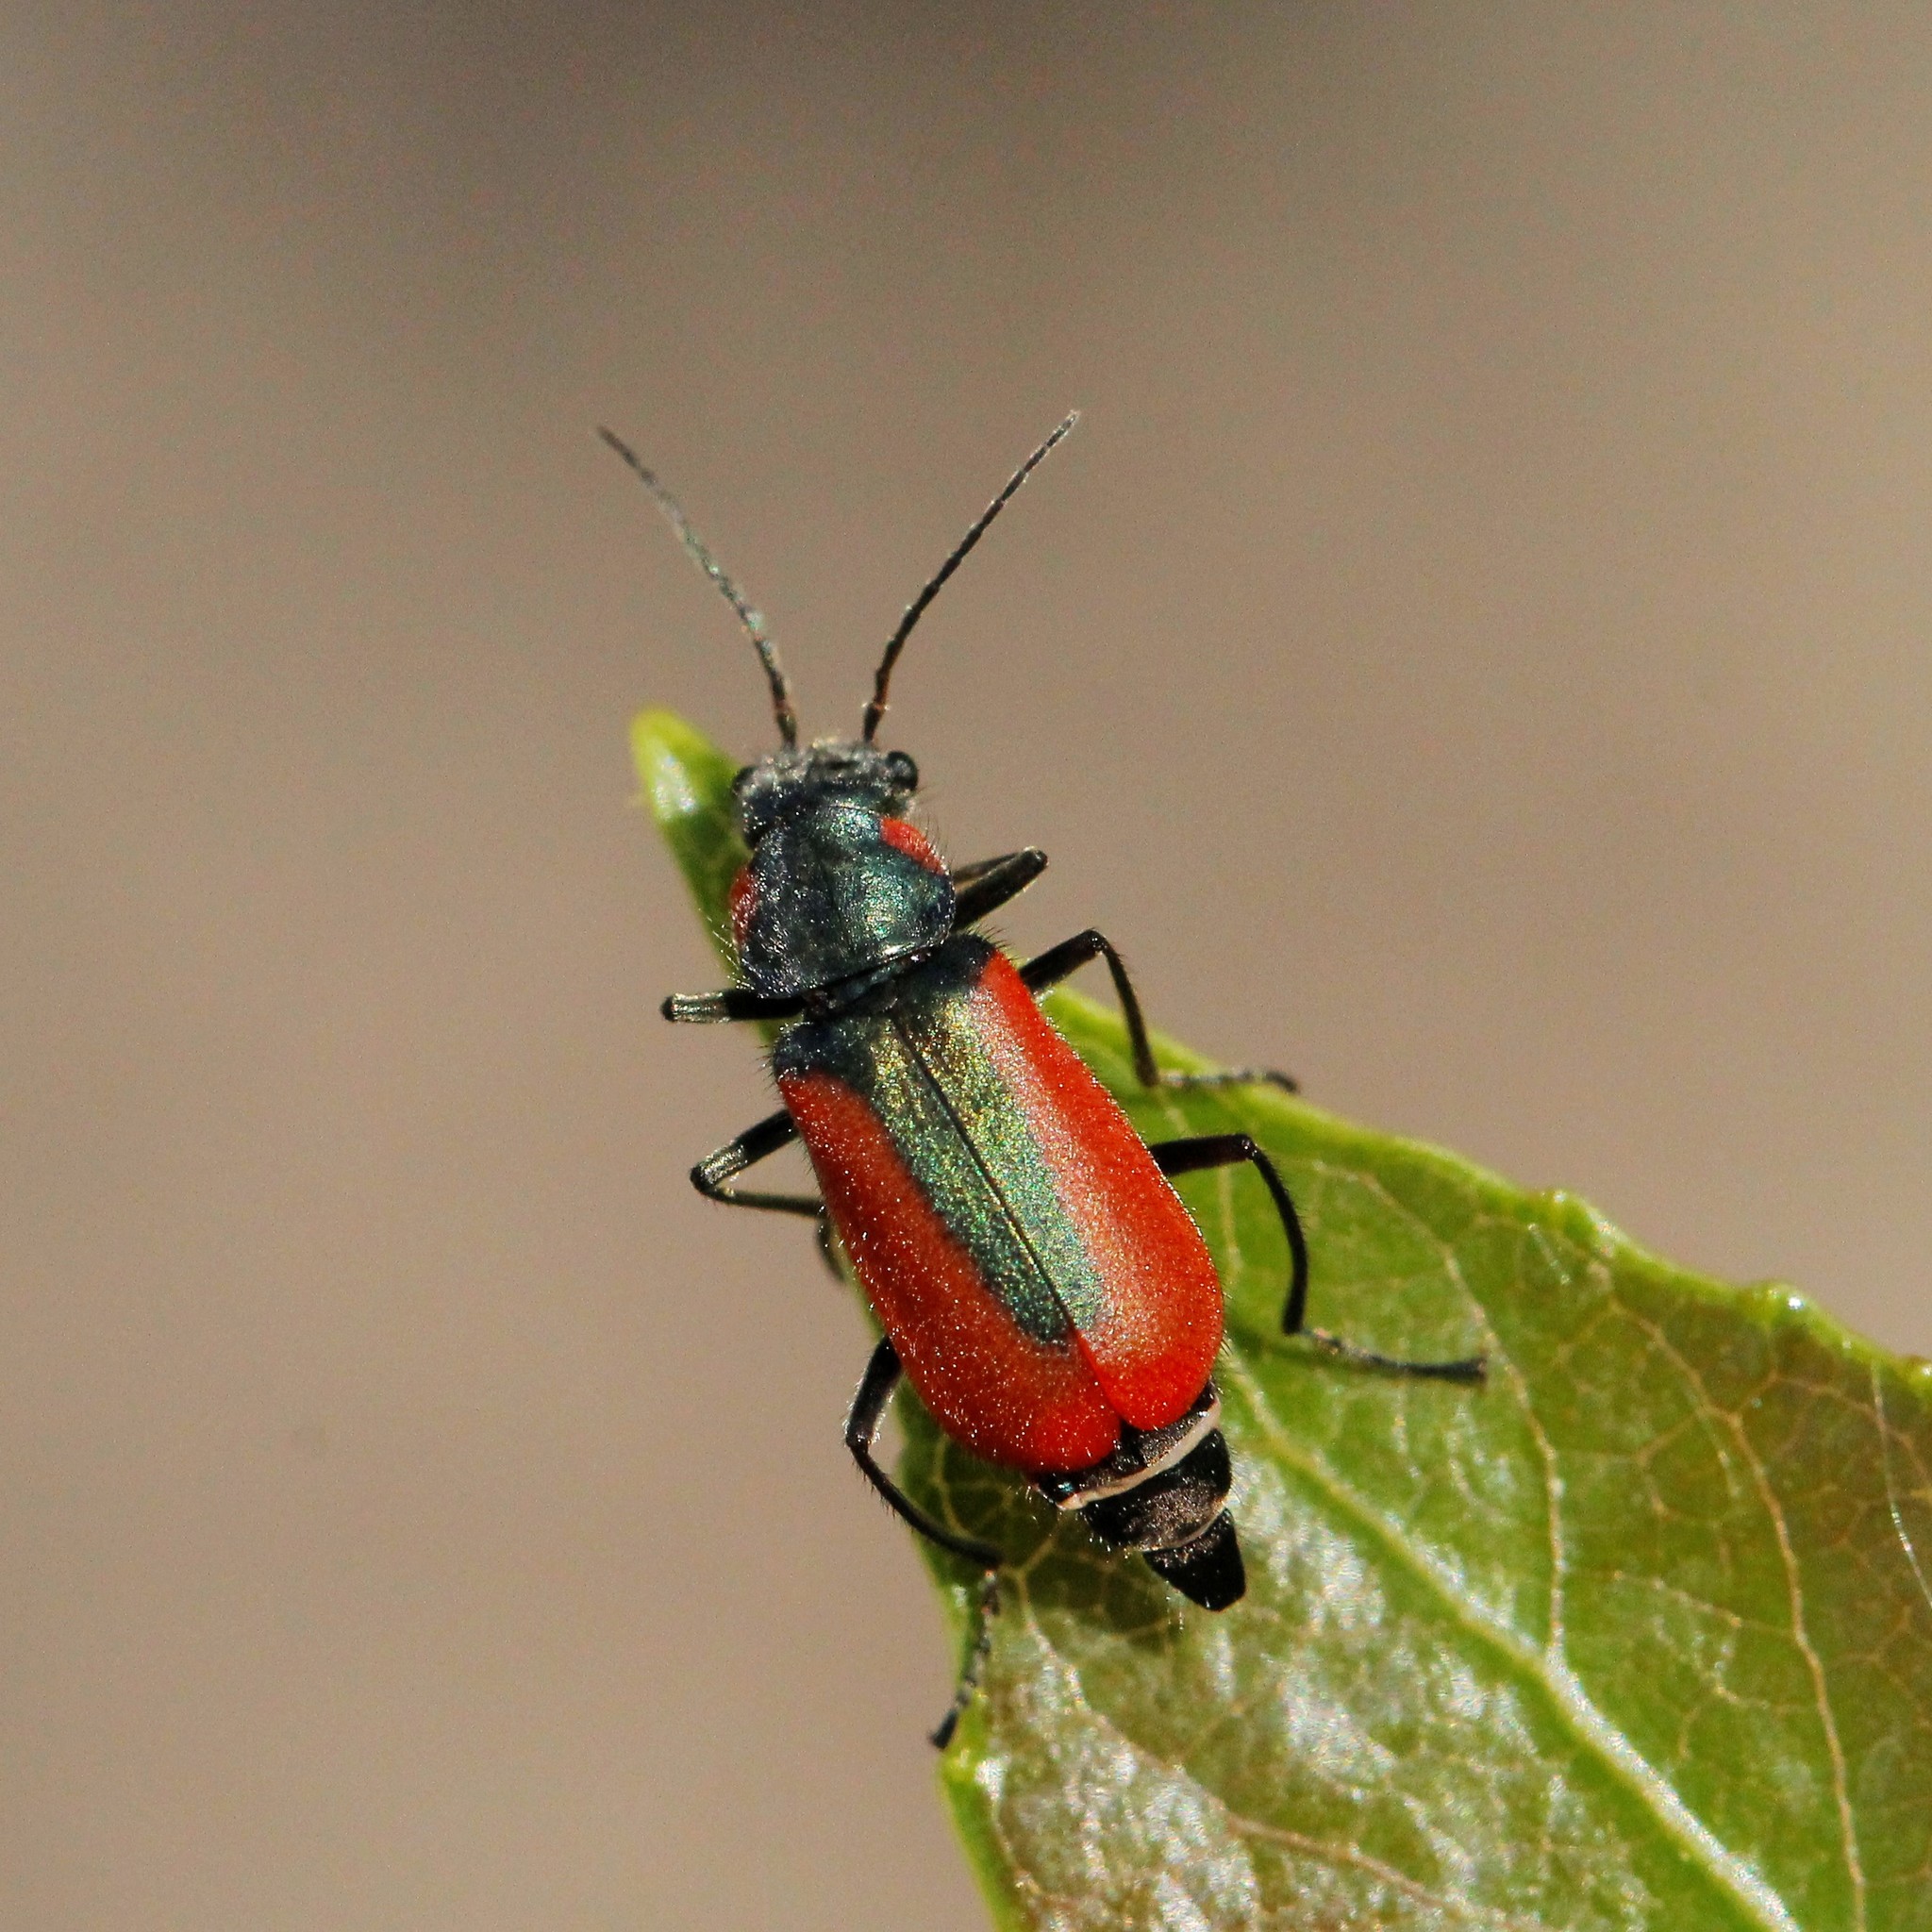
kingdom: Animalia
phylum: Arthropoda
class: Insecta
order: Coleoptera
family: Melyridae
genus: Malachius
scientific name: Malachius aeneus
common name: Scarlet malachite beetle
